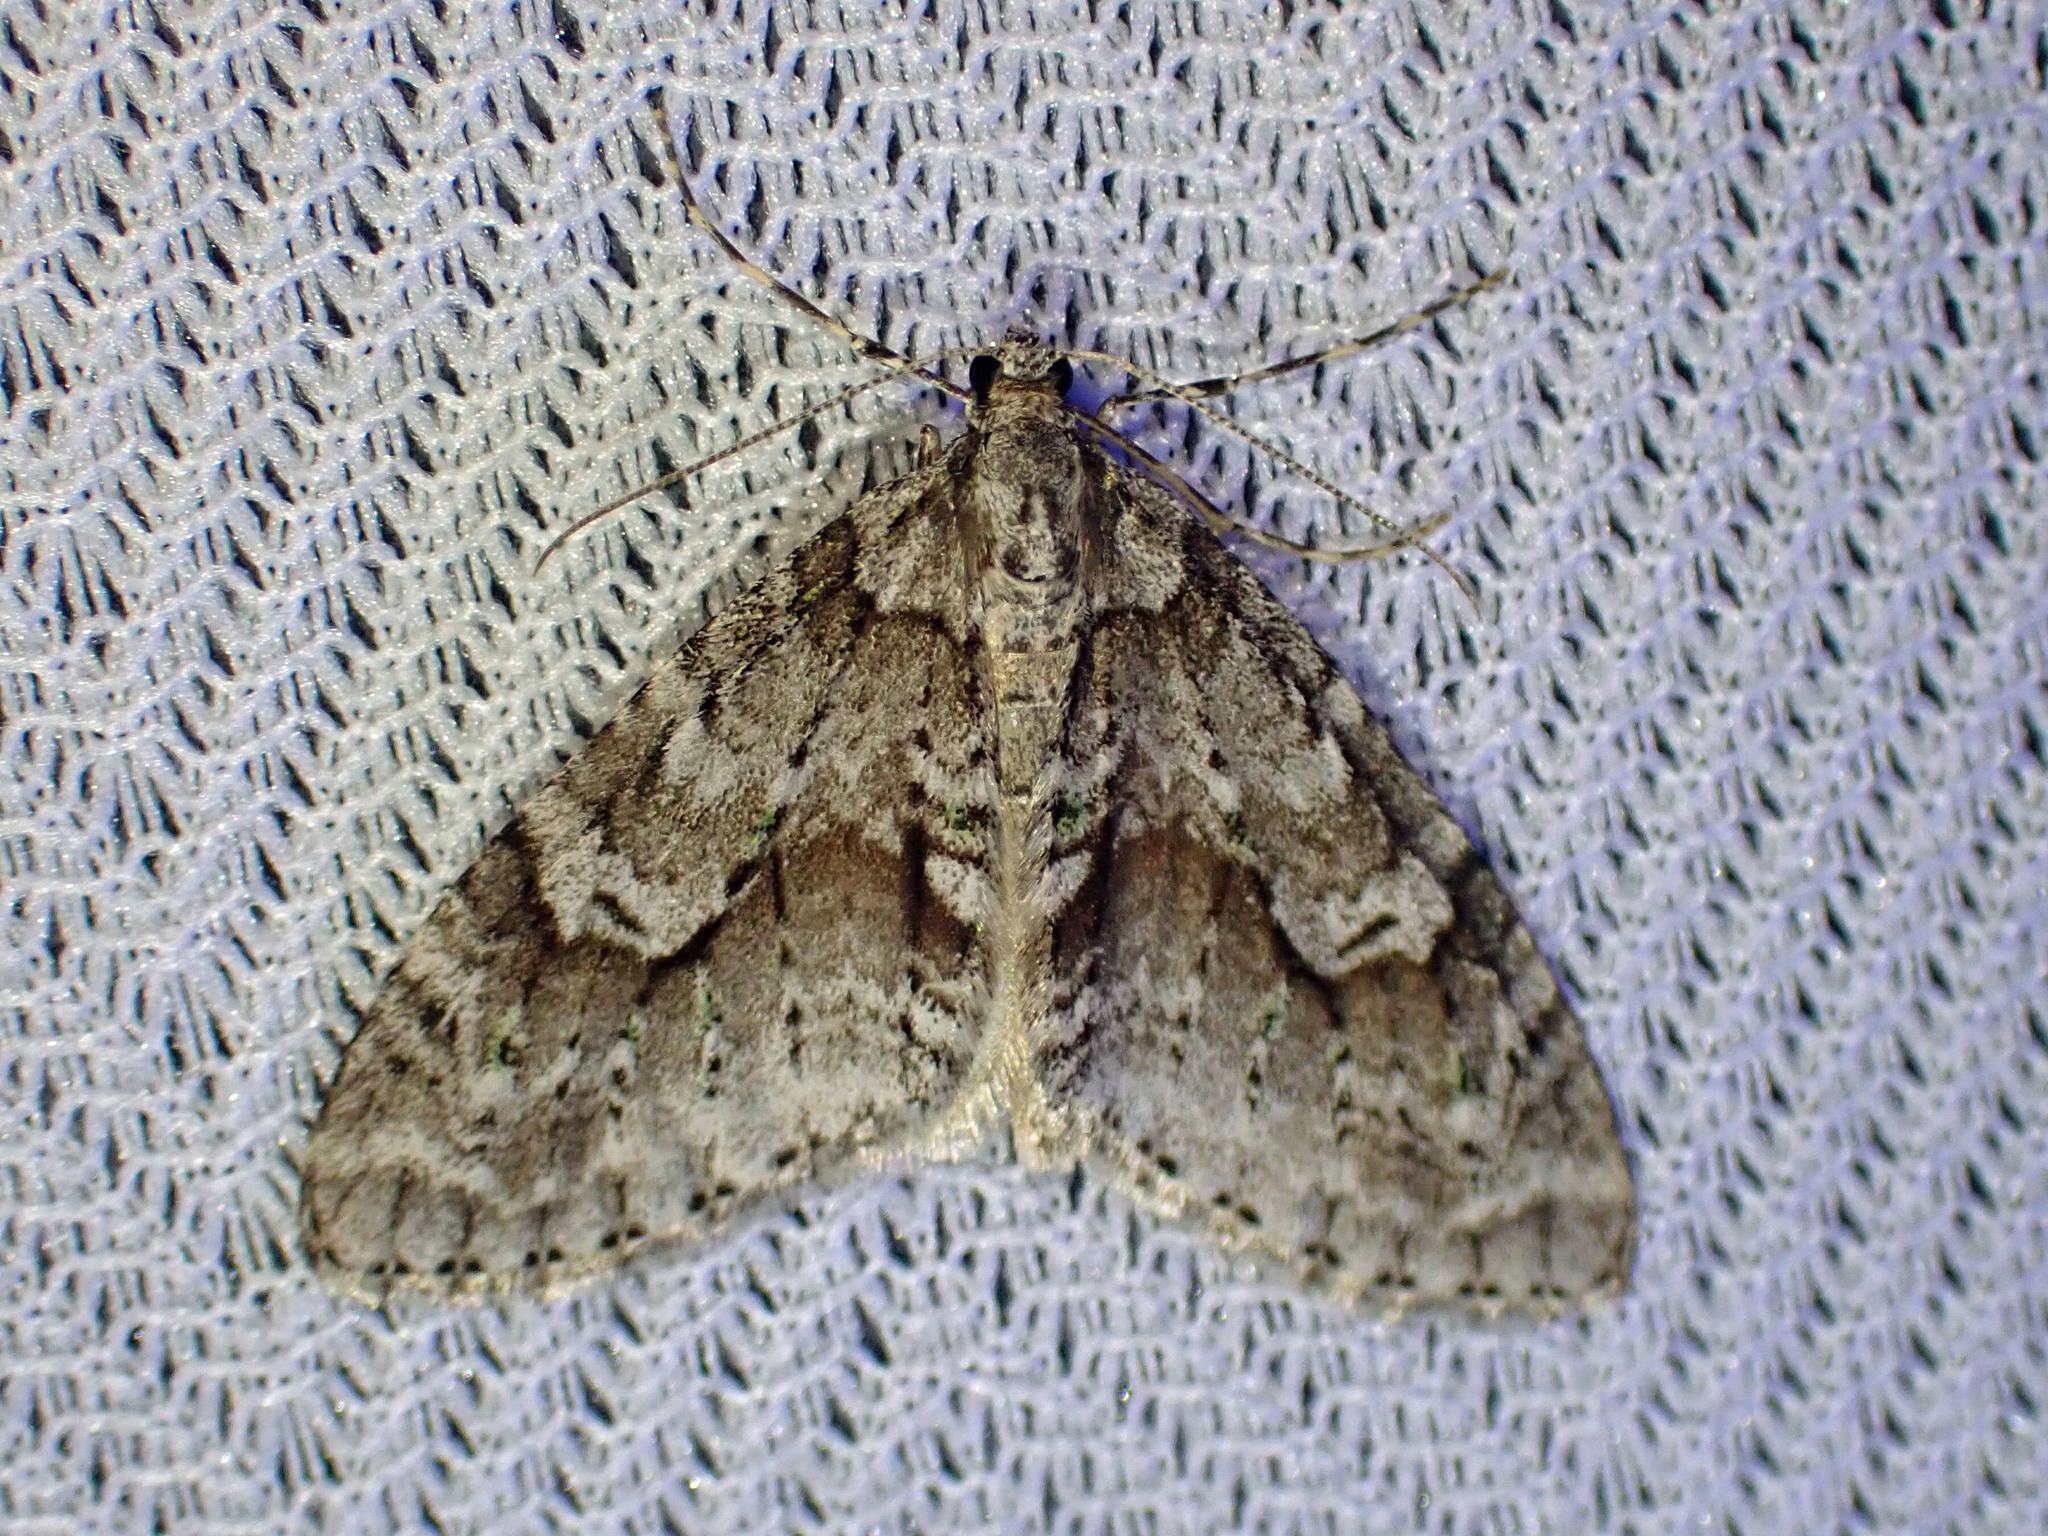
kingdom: Animalia
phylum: Arthropoda
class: Insecta
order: Lepidoptera
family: Geometridae
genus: Cladara
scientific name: Cladara limitaria
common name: Mottled gray carpet
